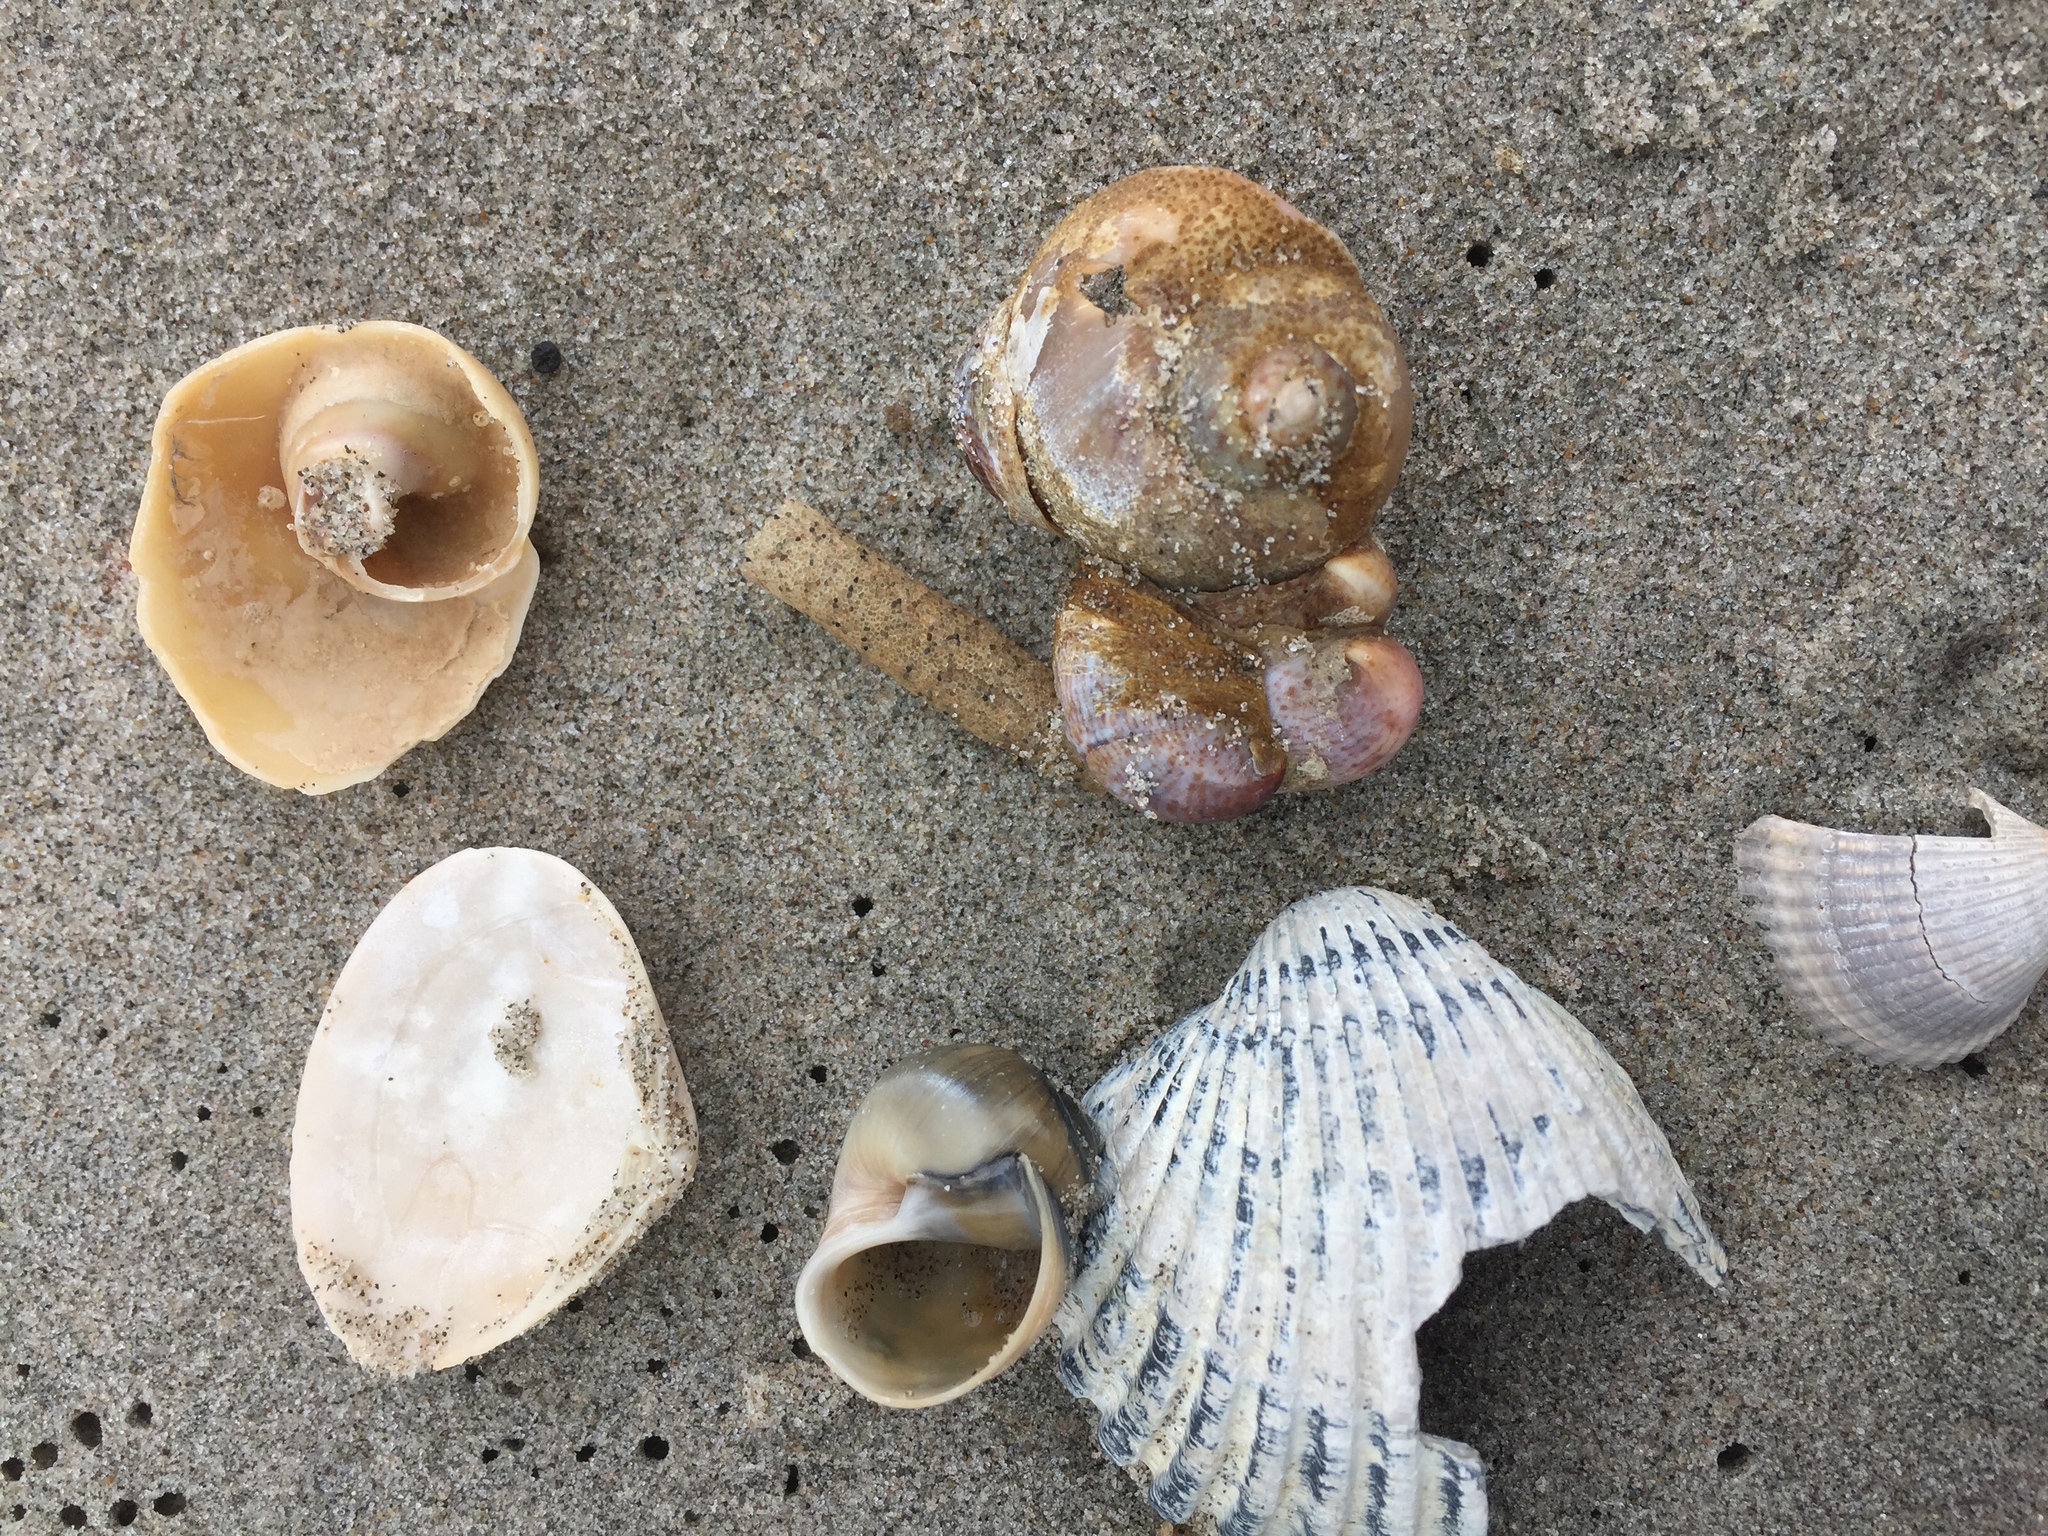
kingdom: Animalia
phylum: Mollusca
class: Gastropoda
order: Littorinimorpha
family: Calyptraeidae
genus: Crepidula
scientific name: Crepidula fornicata
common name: Slipper limpet
